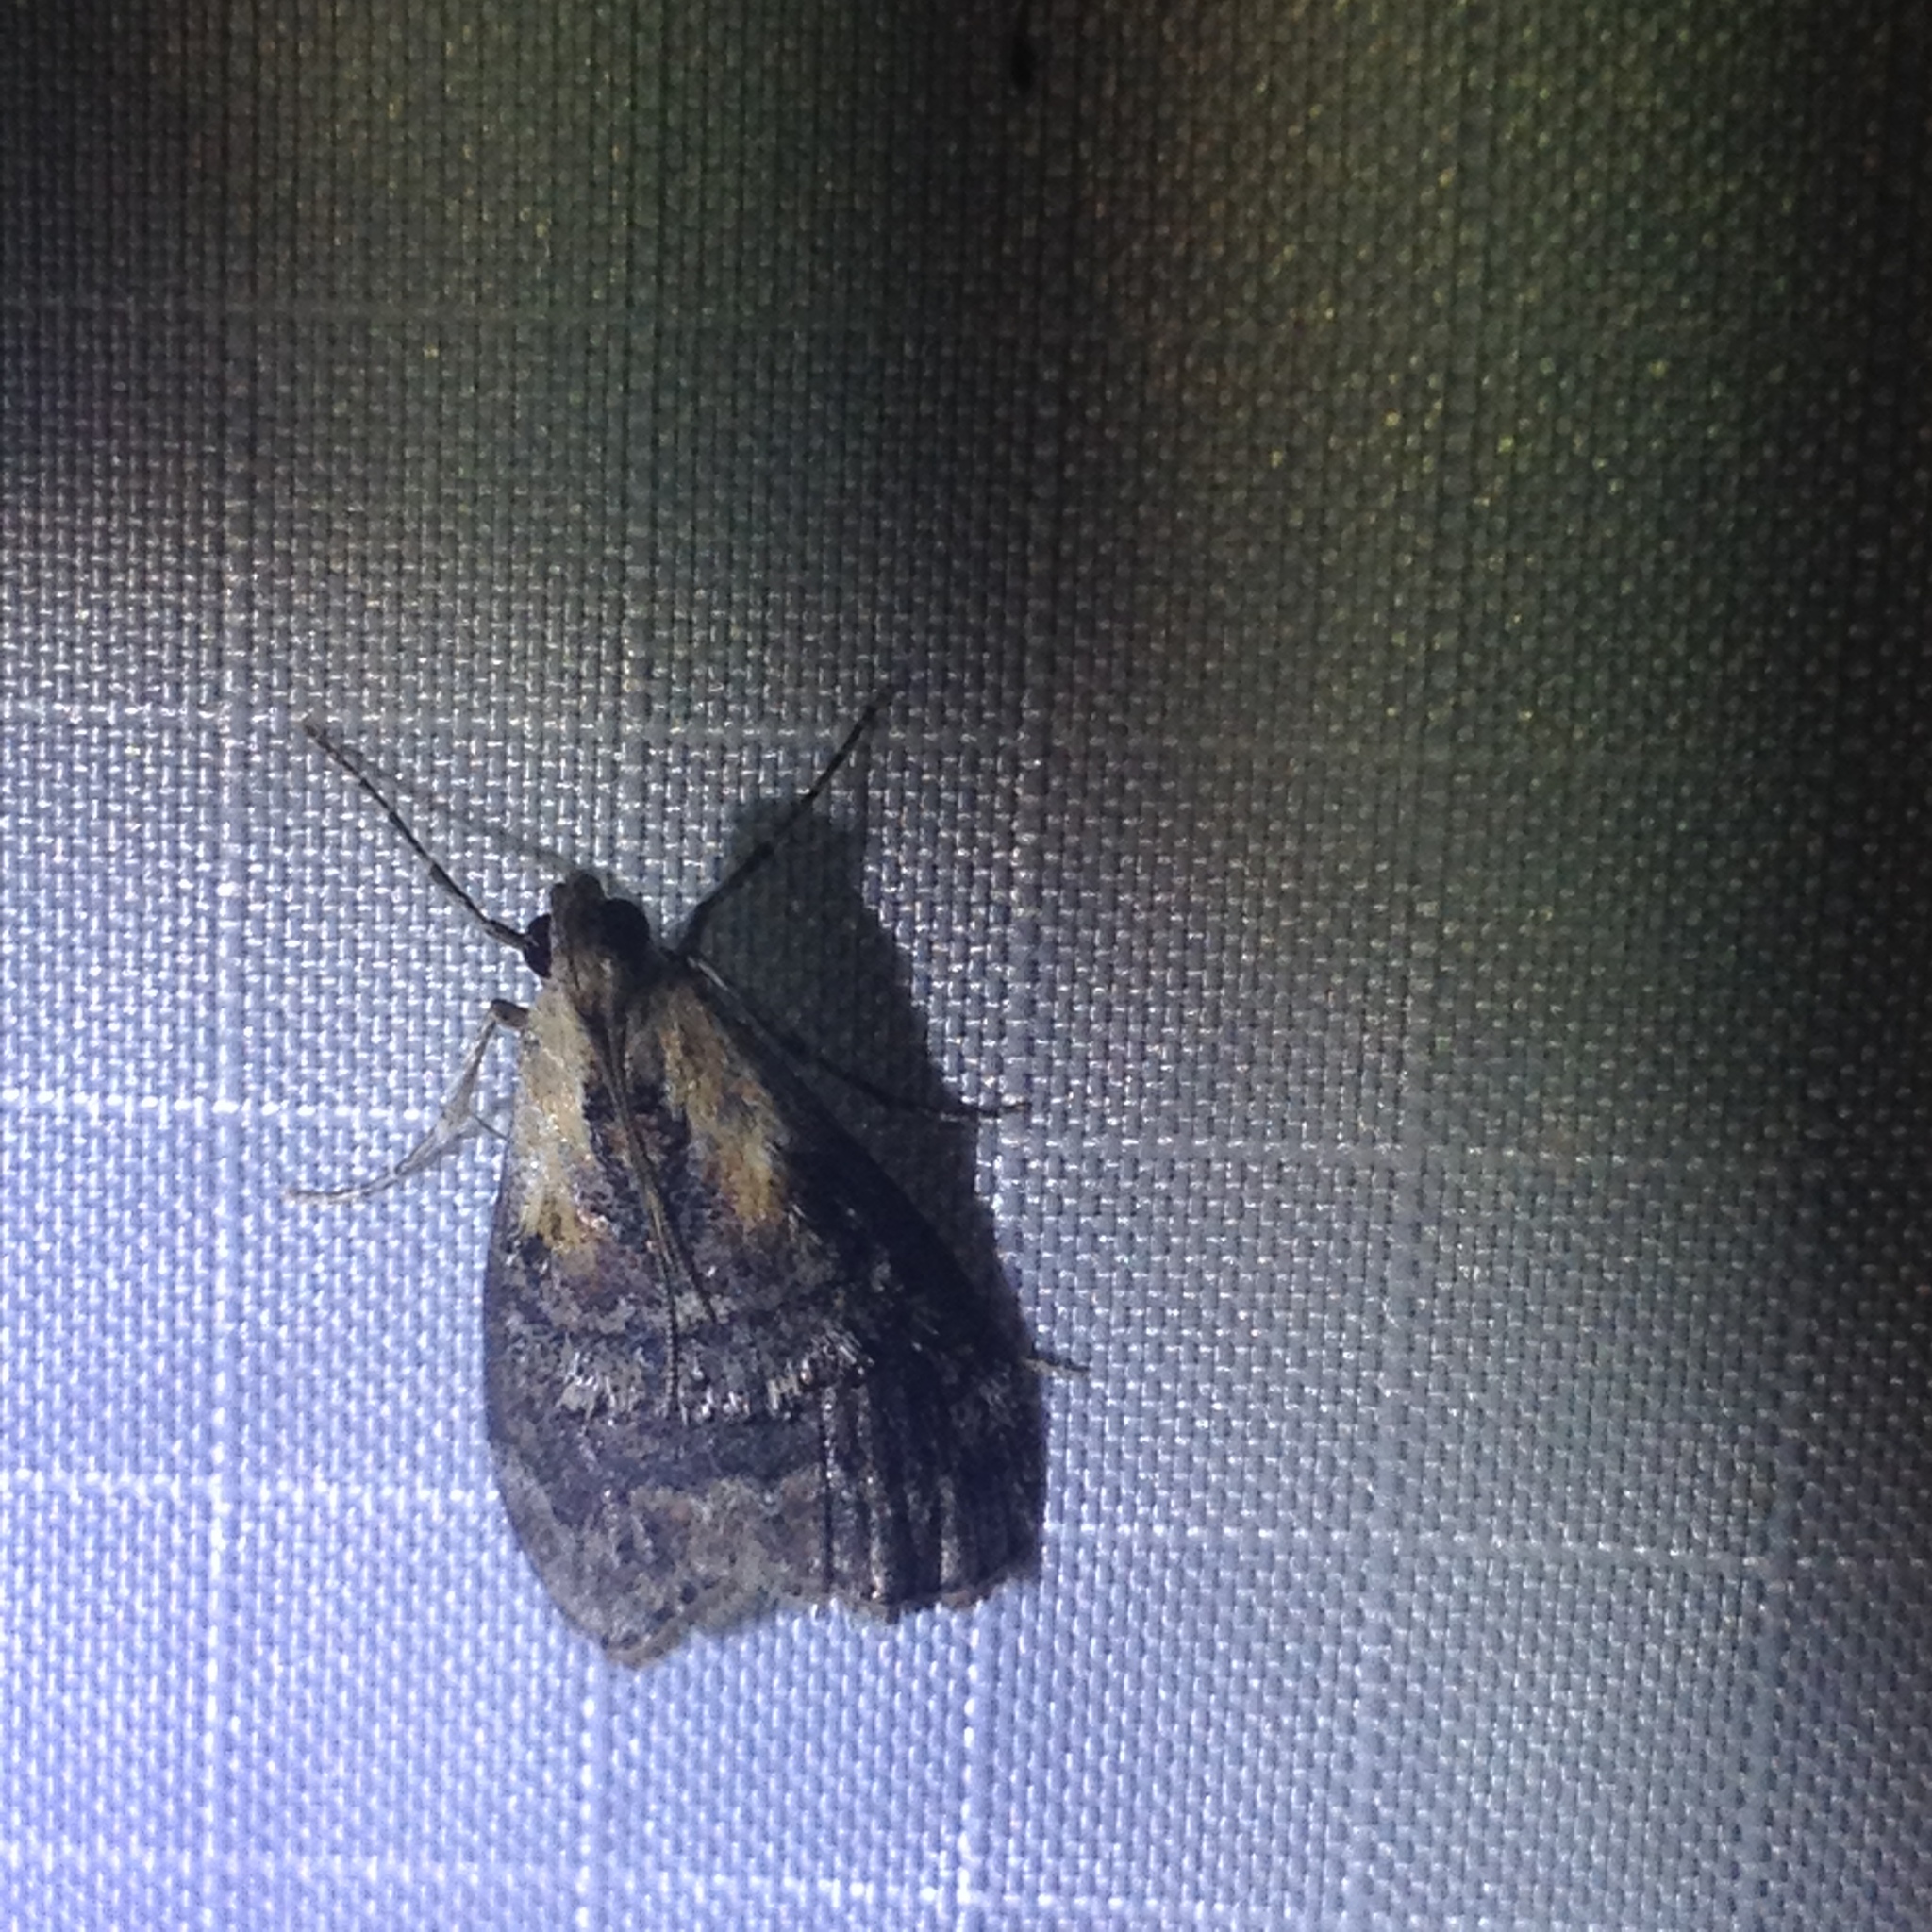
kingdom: Animalia
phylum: Arthropoda
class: Insecta
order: Lepidoptera
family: Pyralidae
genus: Pococera
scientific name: Pococera expandens
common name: Striped oak webworm moth
